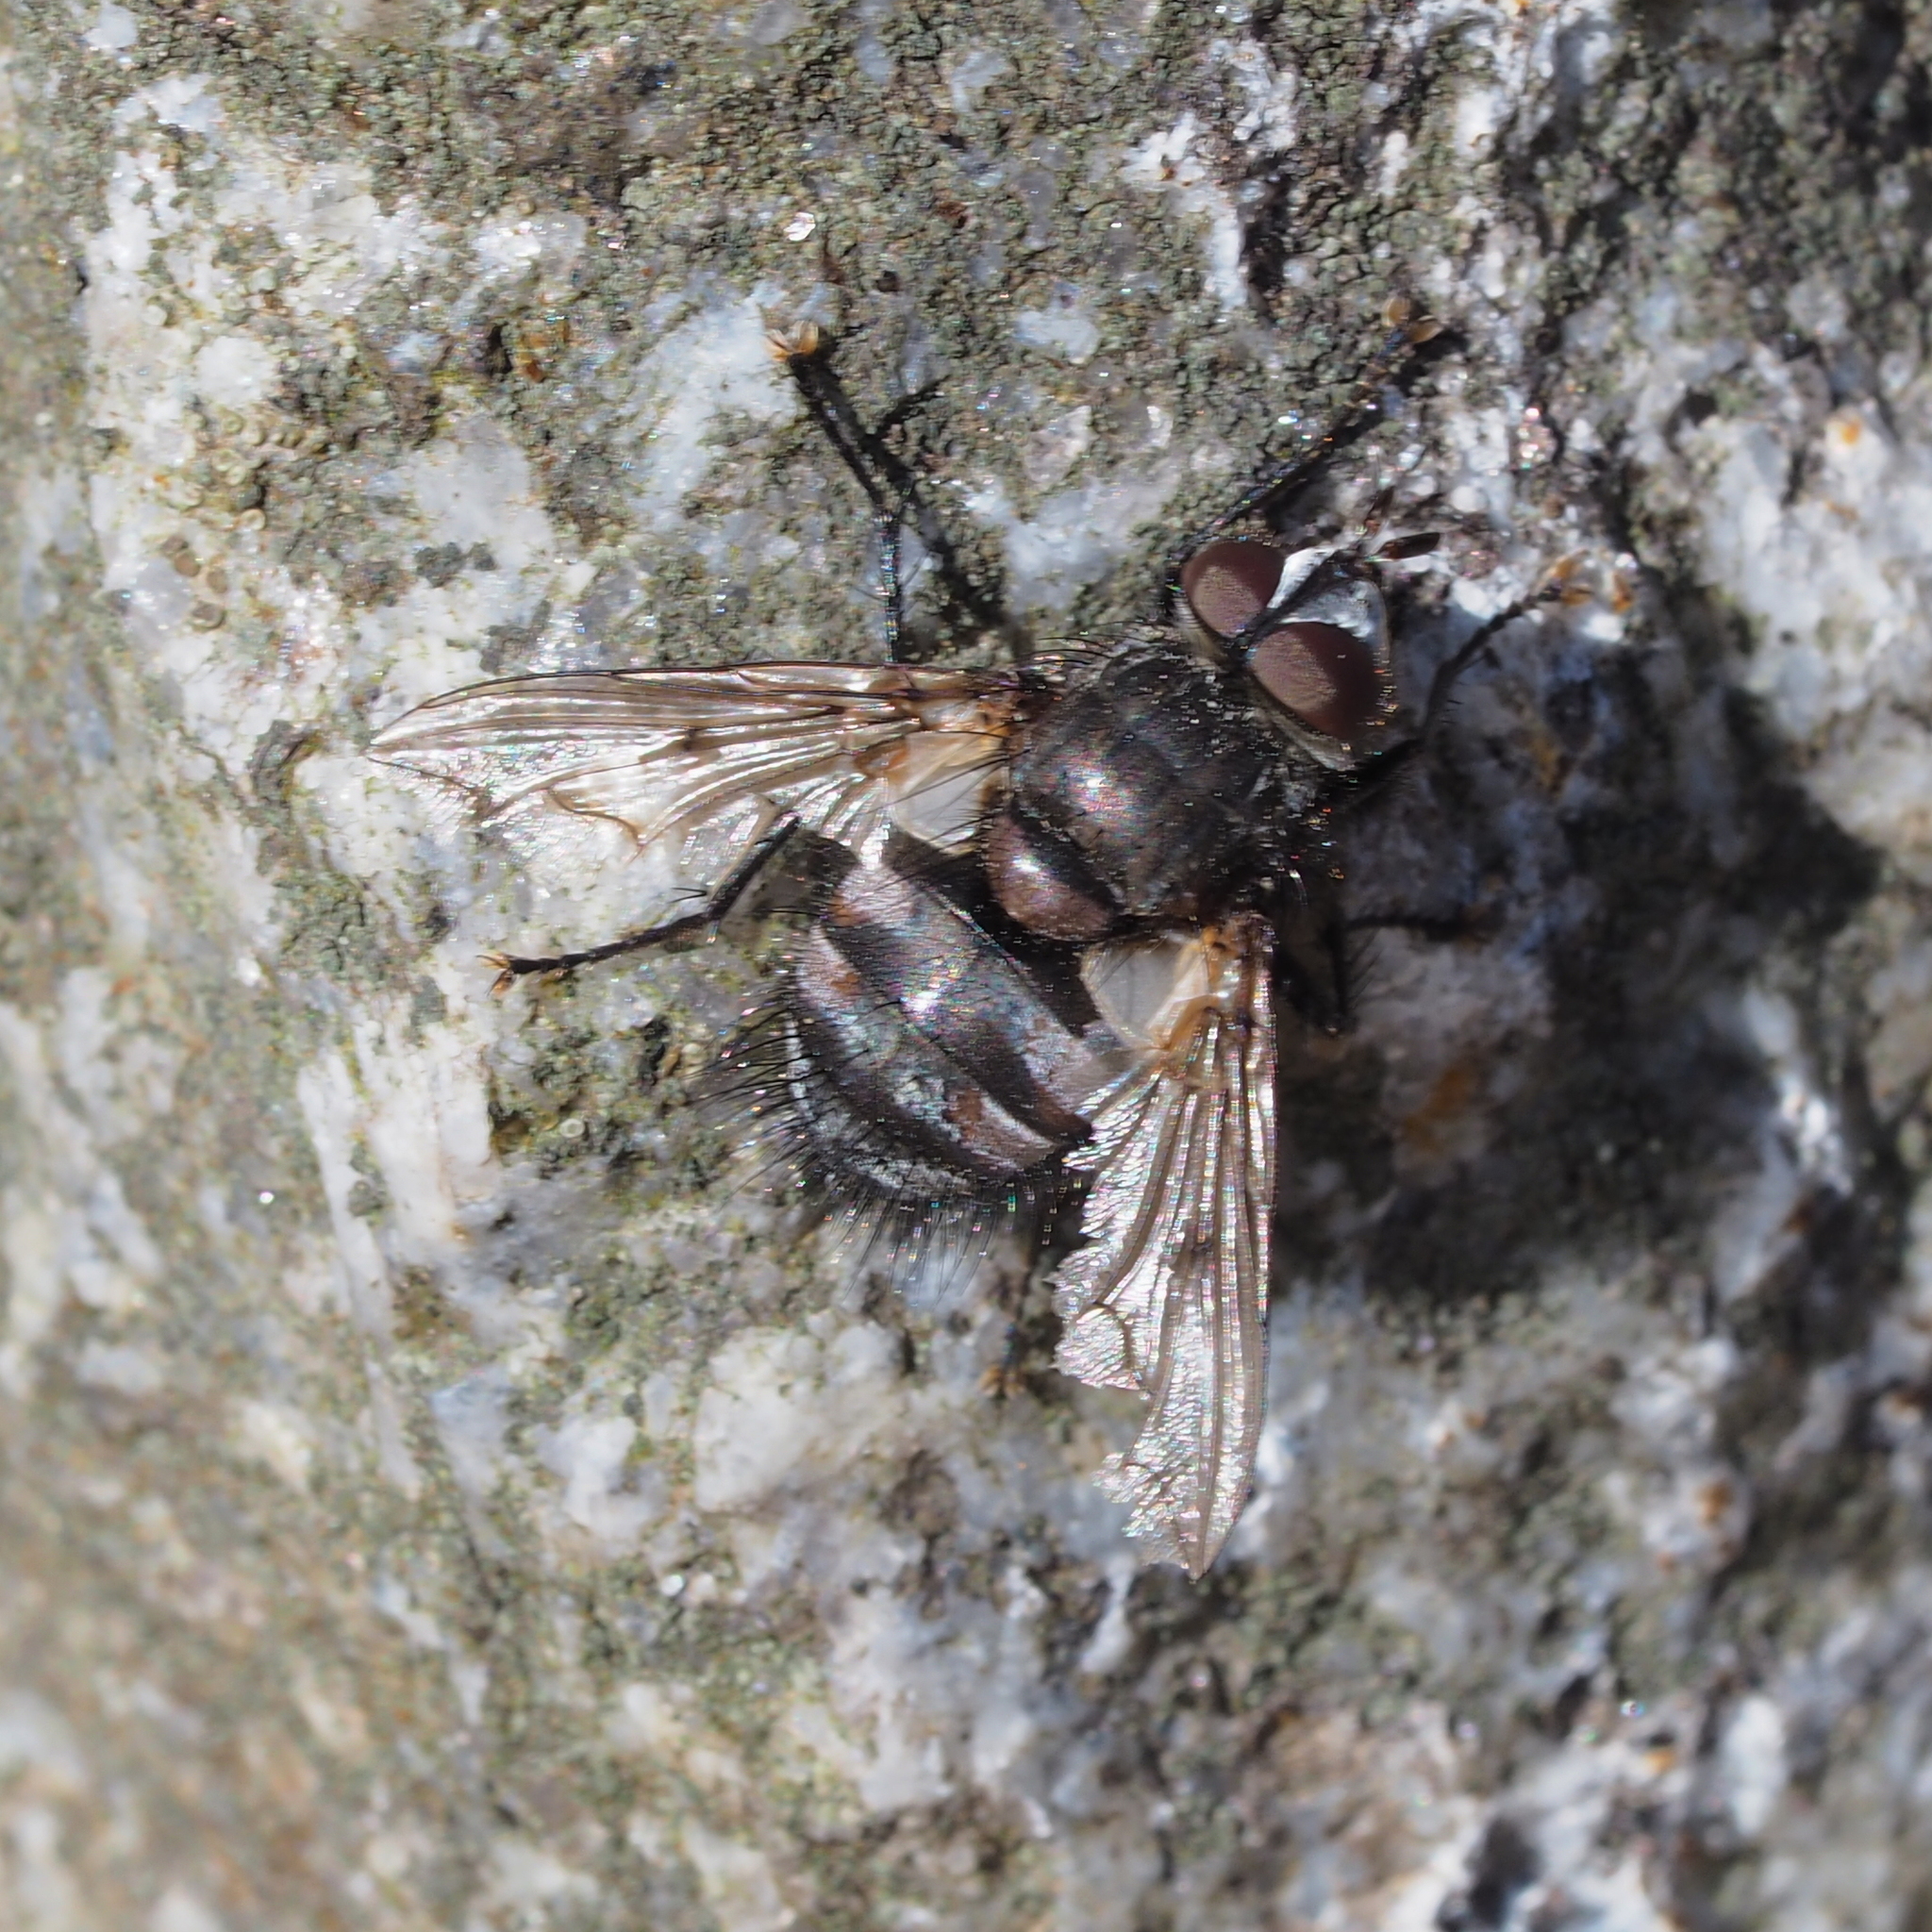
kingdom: Animalia
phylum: Arthropoda
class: Insecta
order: Diptera
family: Tachinidae
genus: Panzeria
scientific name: Panzeria puparum
